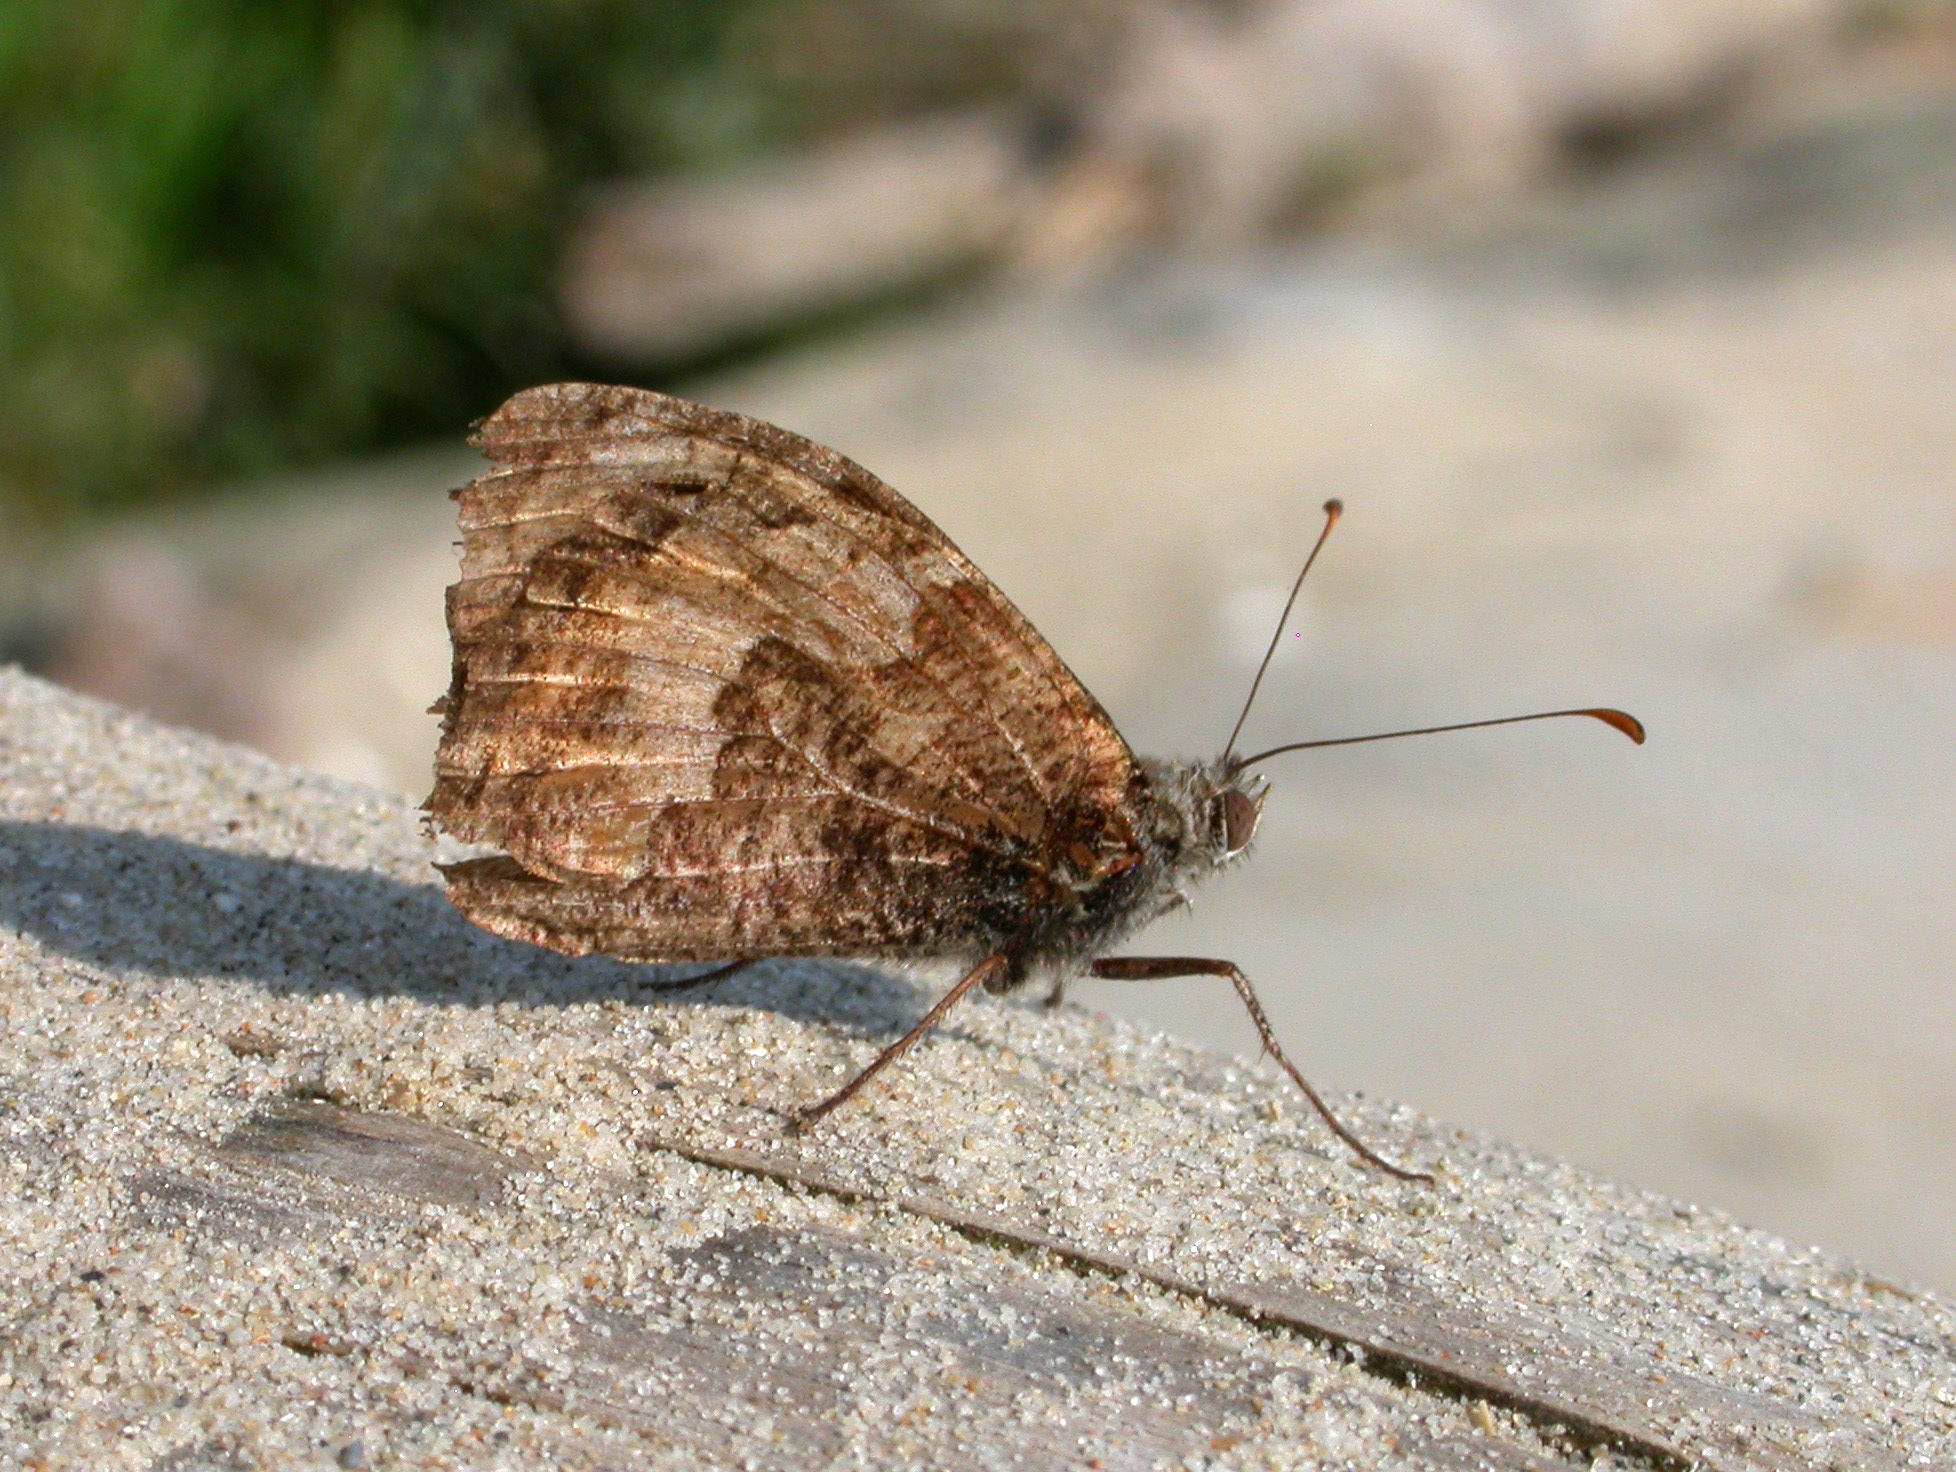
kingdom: Animalia
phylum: Arthropoda
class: Insecta
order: Lepidoptera
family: Nymphalidae
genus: Hipparchia
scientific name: Hipparchia semele
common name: Grayling
